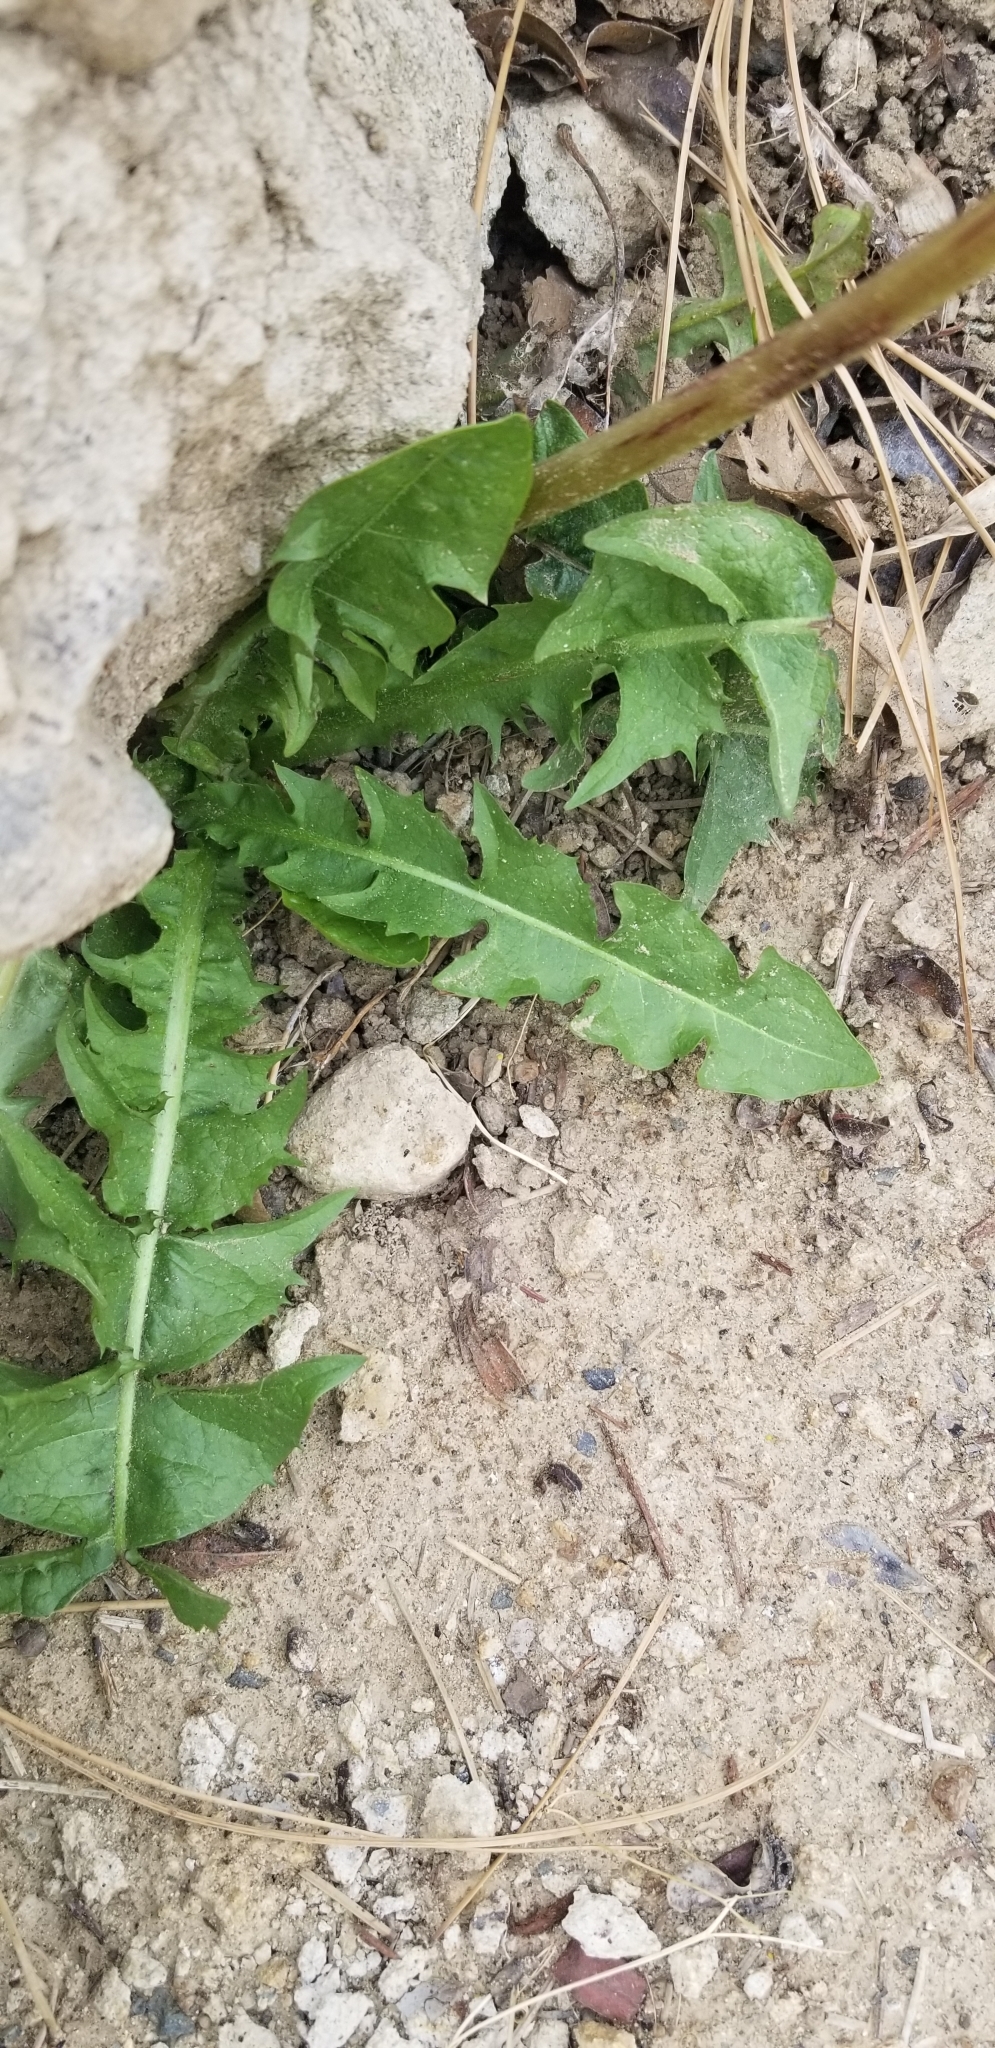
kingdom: Plantae
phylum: Tracheophyta
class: Magnoliopsida
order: Asterales
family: Asteraceae
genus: Taraxacum
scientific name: Taraxacum officinale
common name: Common dandelion
